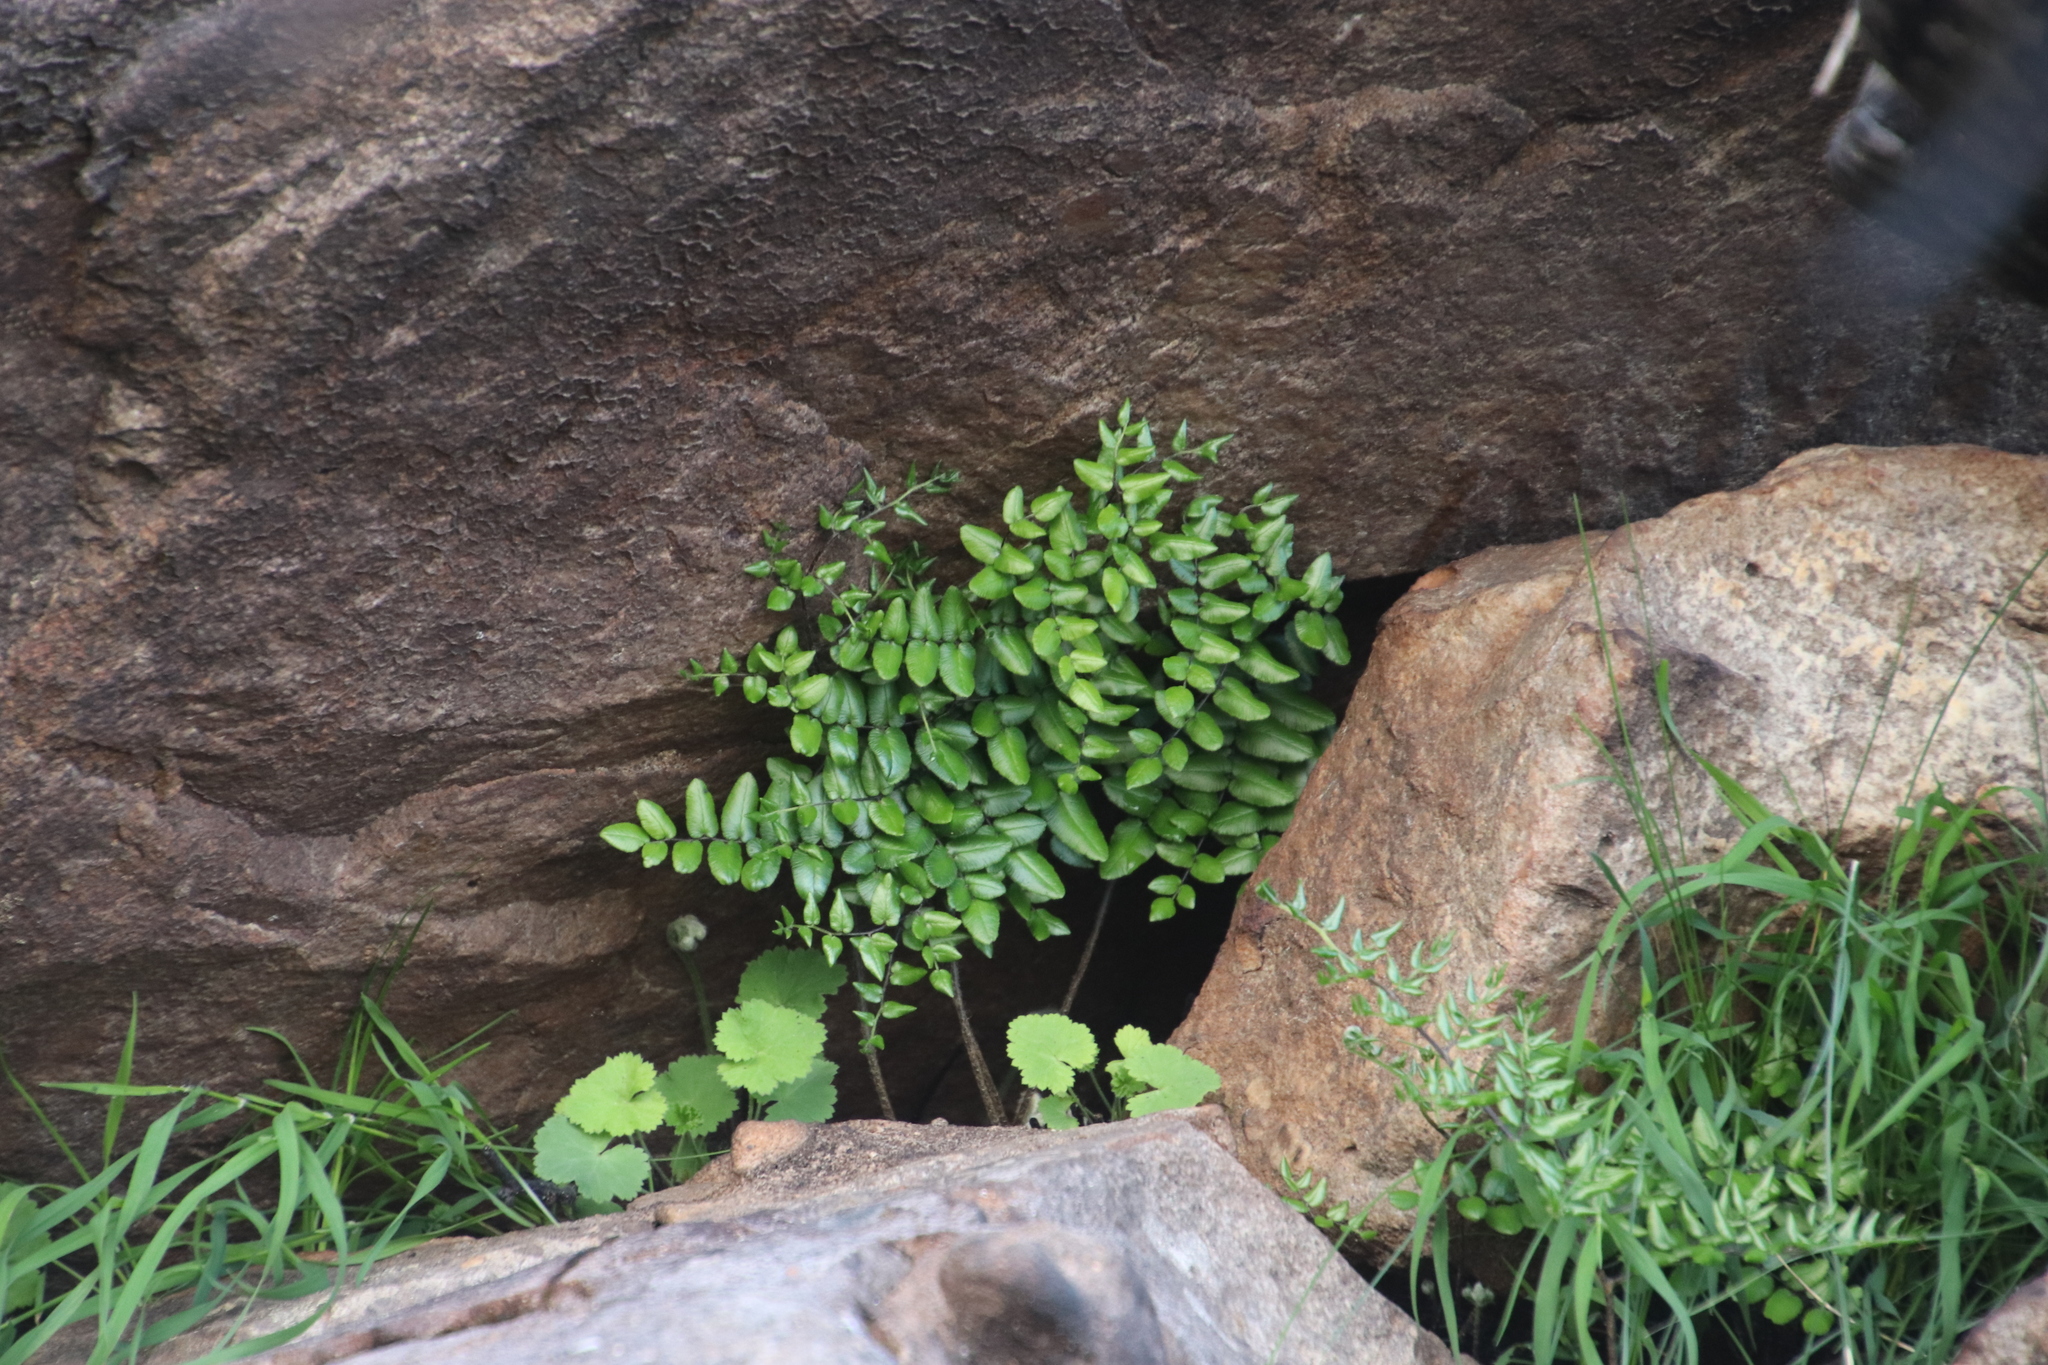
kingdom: Plantae
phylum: Tracheophyta
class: Polypodiopsida
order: Polypodiales
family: Pteridaceae
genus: Pellaea
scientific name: Pellaea pteroides
